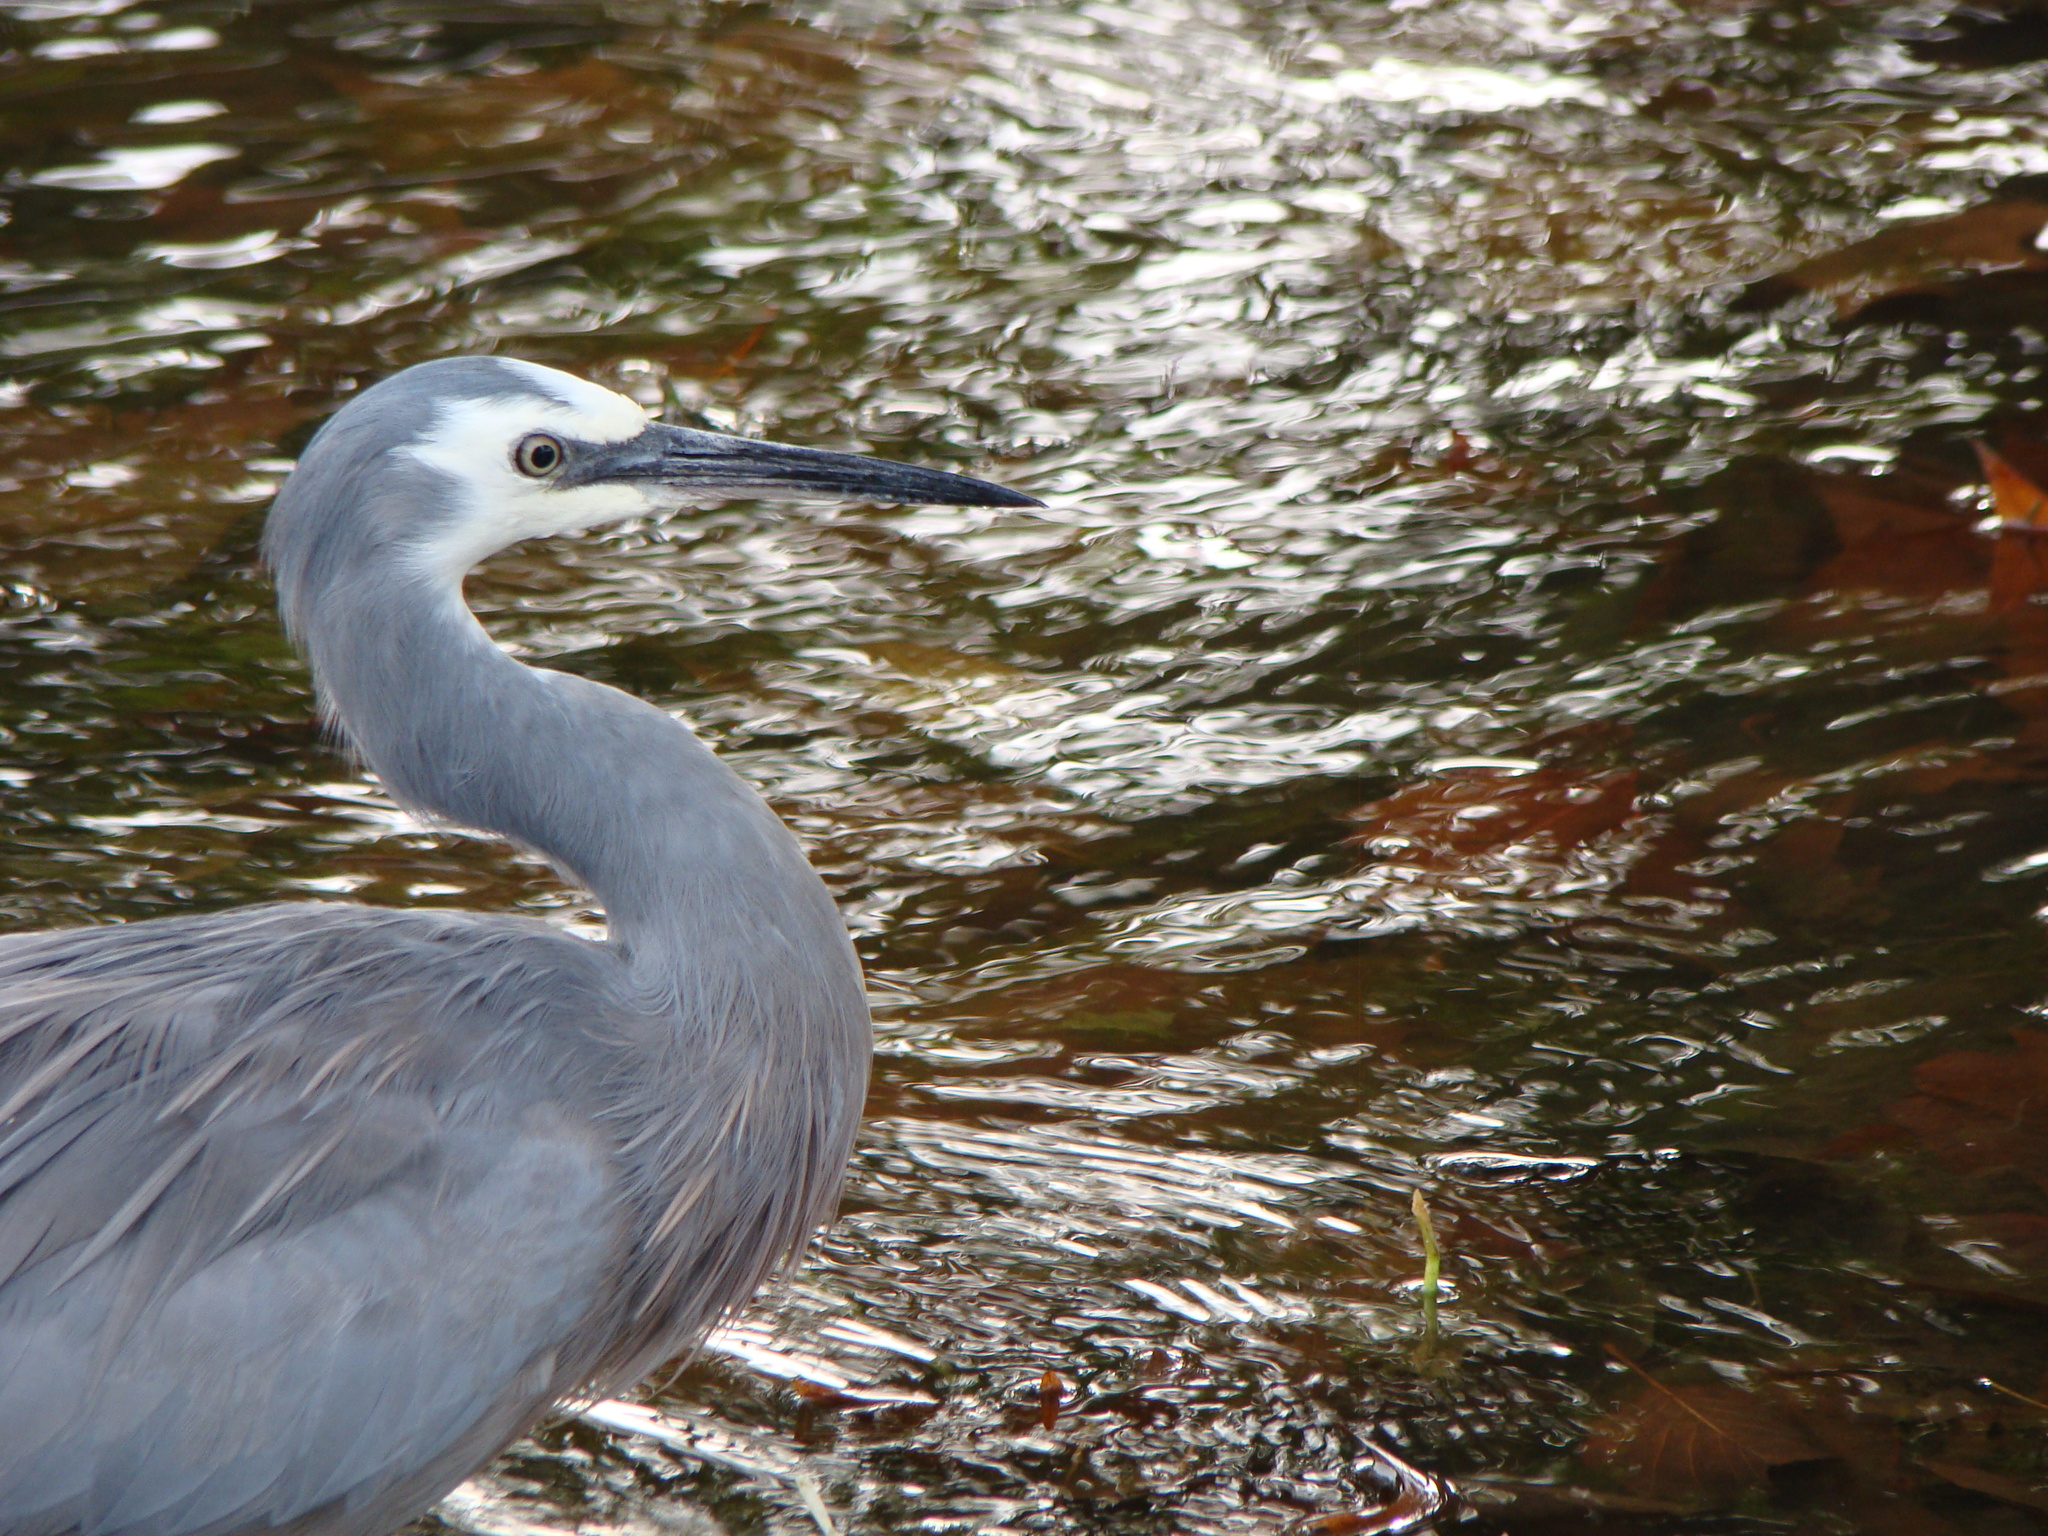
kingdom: Animalia
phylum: Chordata
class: Aves
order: Pelecaniformes
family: Ardeidae
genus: Egretta
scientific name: Egretta novaehollandiae
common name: White-faced heron
